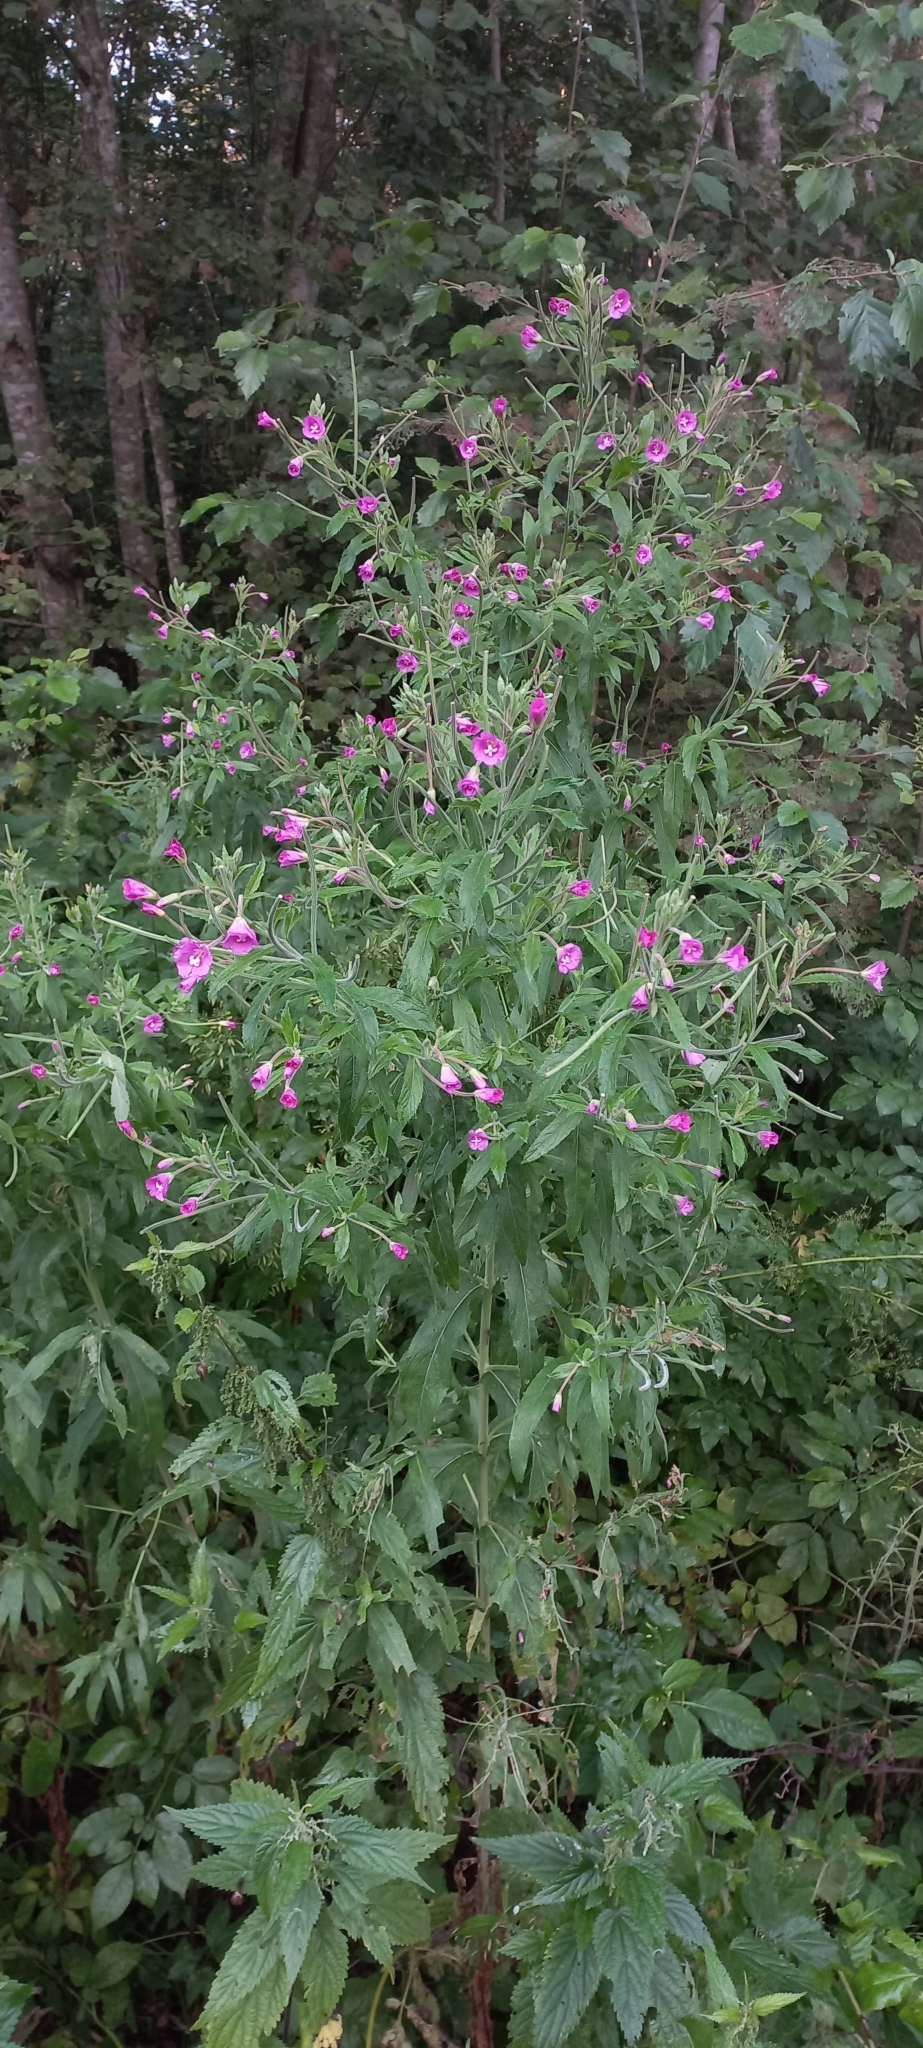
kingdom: Plantae
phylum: Tracheophyta
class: Magnoliopsida
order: Myrtales
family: Onagraceae
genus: Epilobium
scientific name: Epilobium hirsutum
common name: Great willowherb
